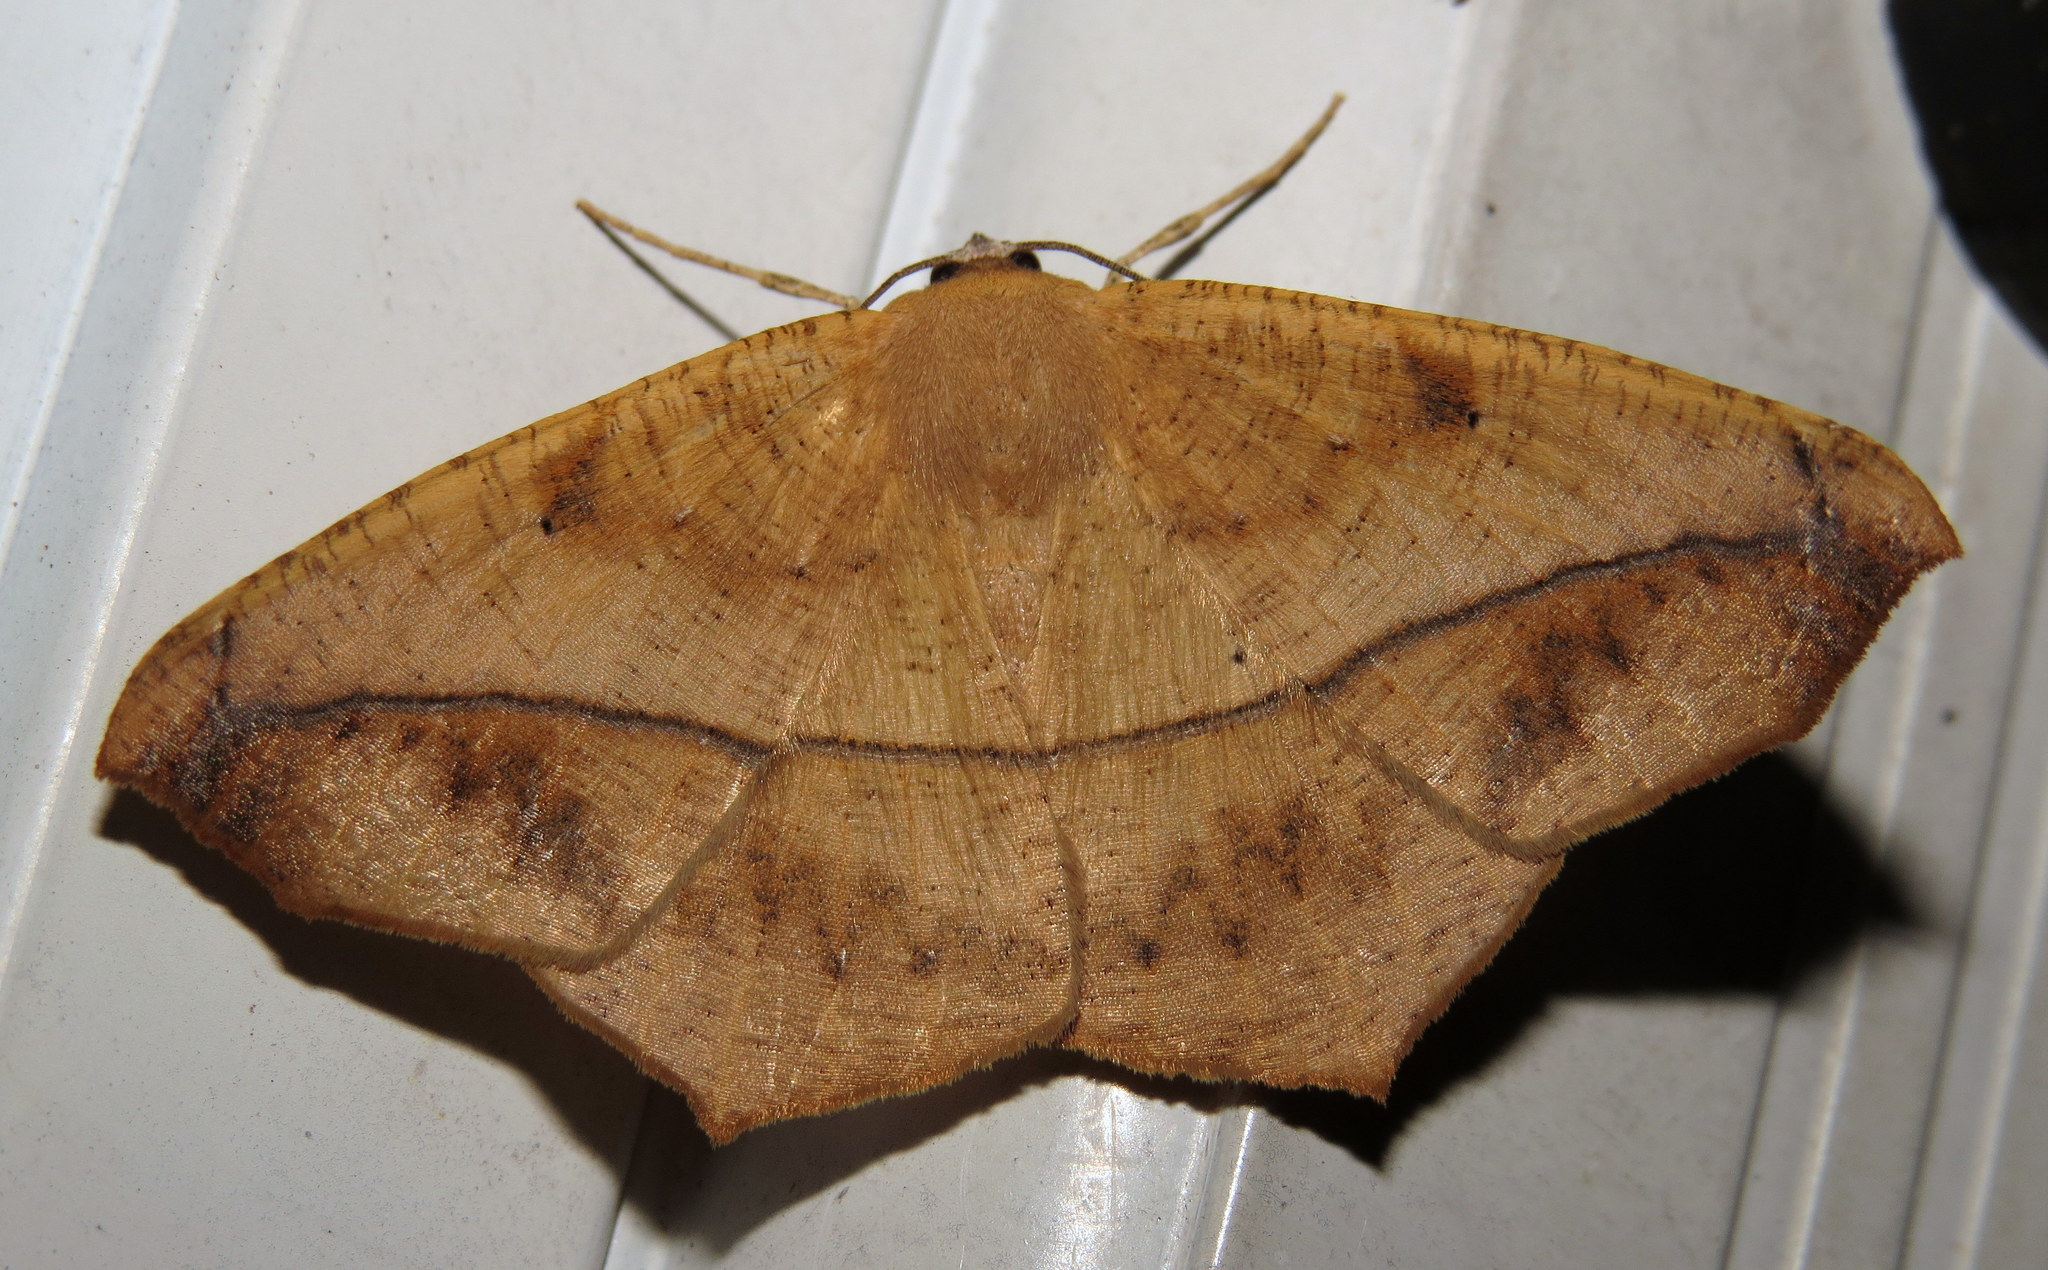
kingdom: Animalia
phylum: Arthropoda
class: Insecta
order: Lepidoptera
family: Geometridae
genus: Prochoerodes
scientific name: Prochoerodes lineola
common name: Large maple spanworm
